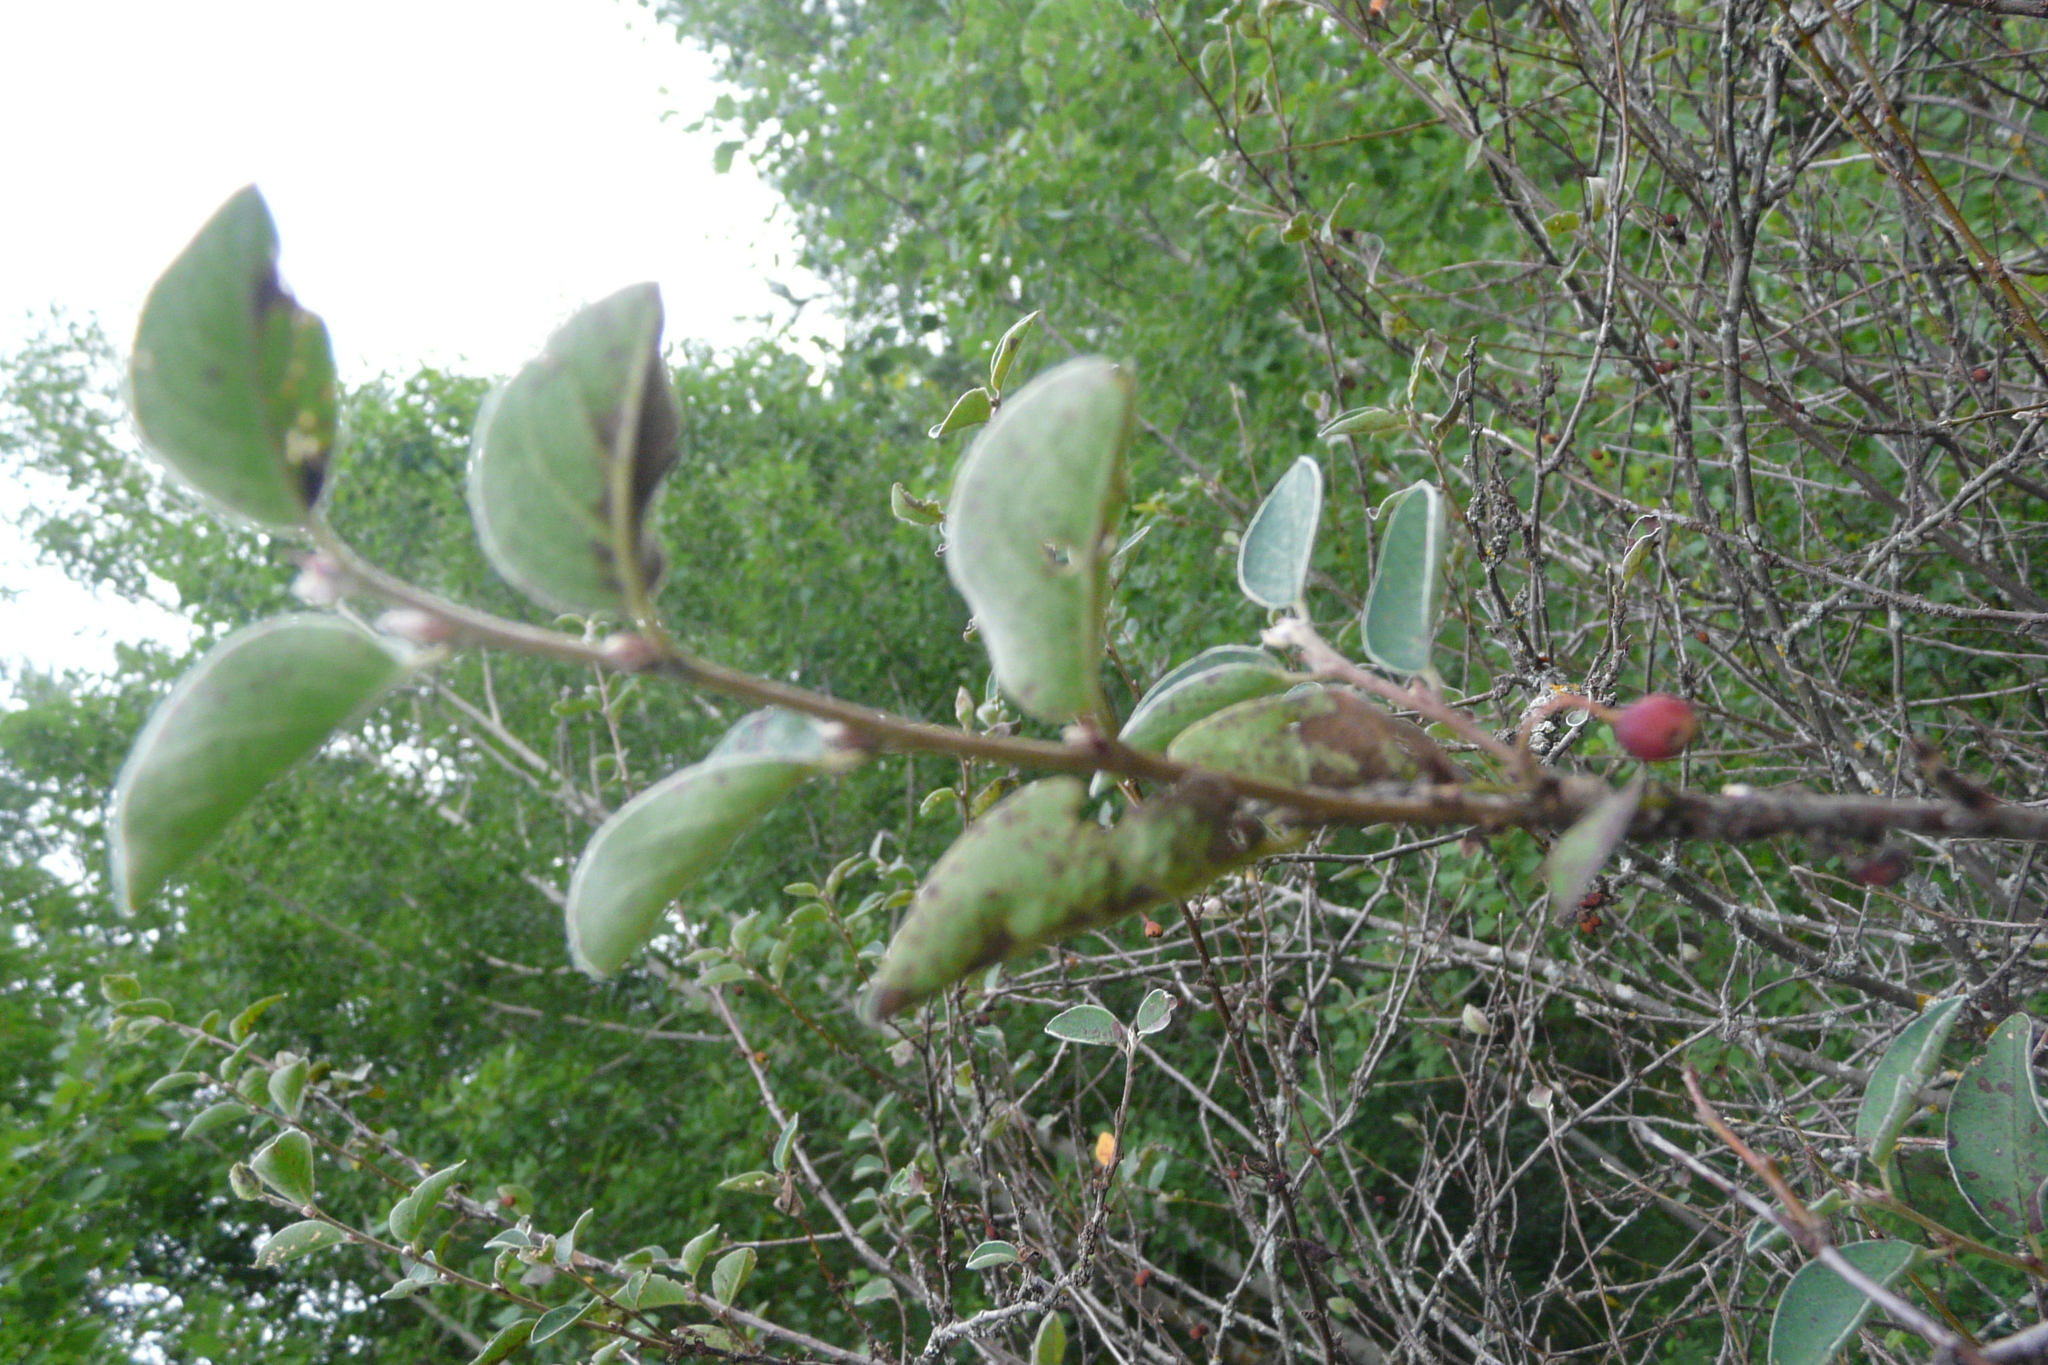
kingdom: Plantae
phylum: Tracheophyta
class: Magnoliopsida
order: Rosales
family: Rosaceae
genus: Cotoneaster
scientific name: Cotoneaster melanocarpus
